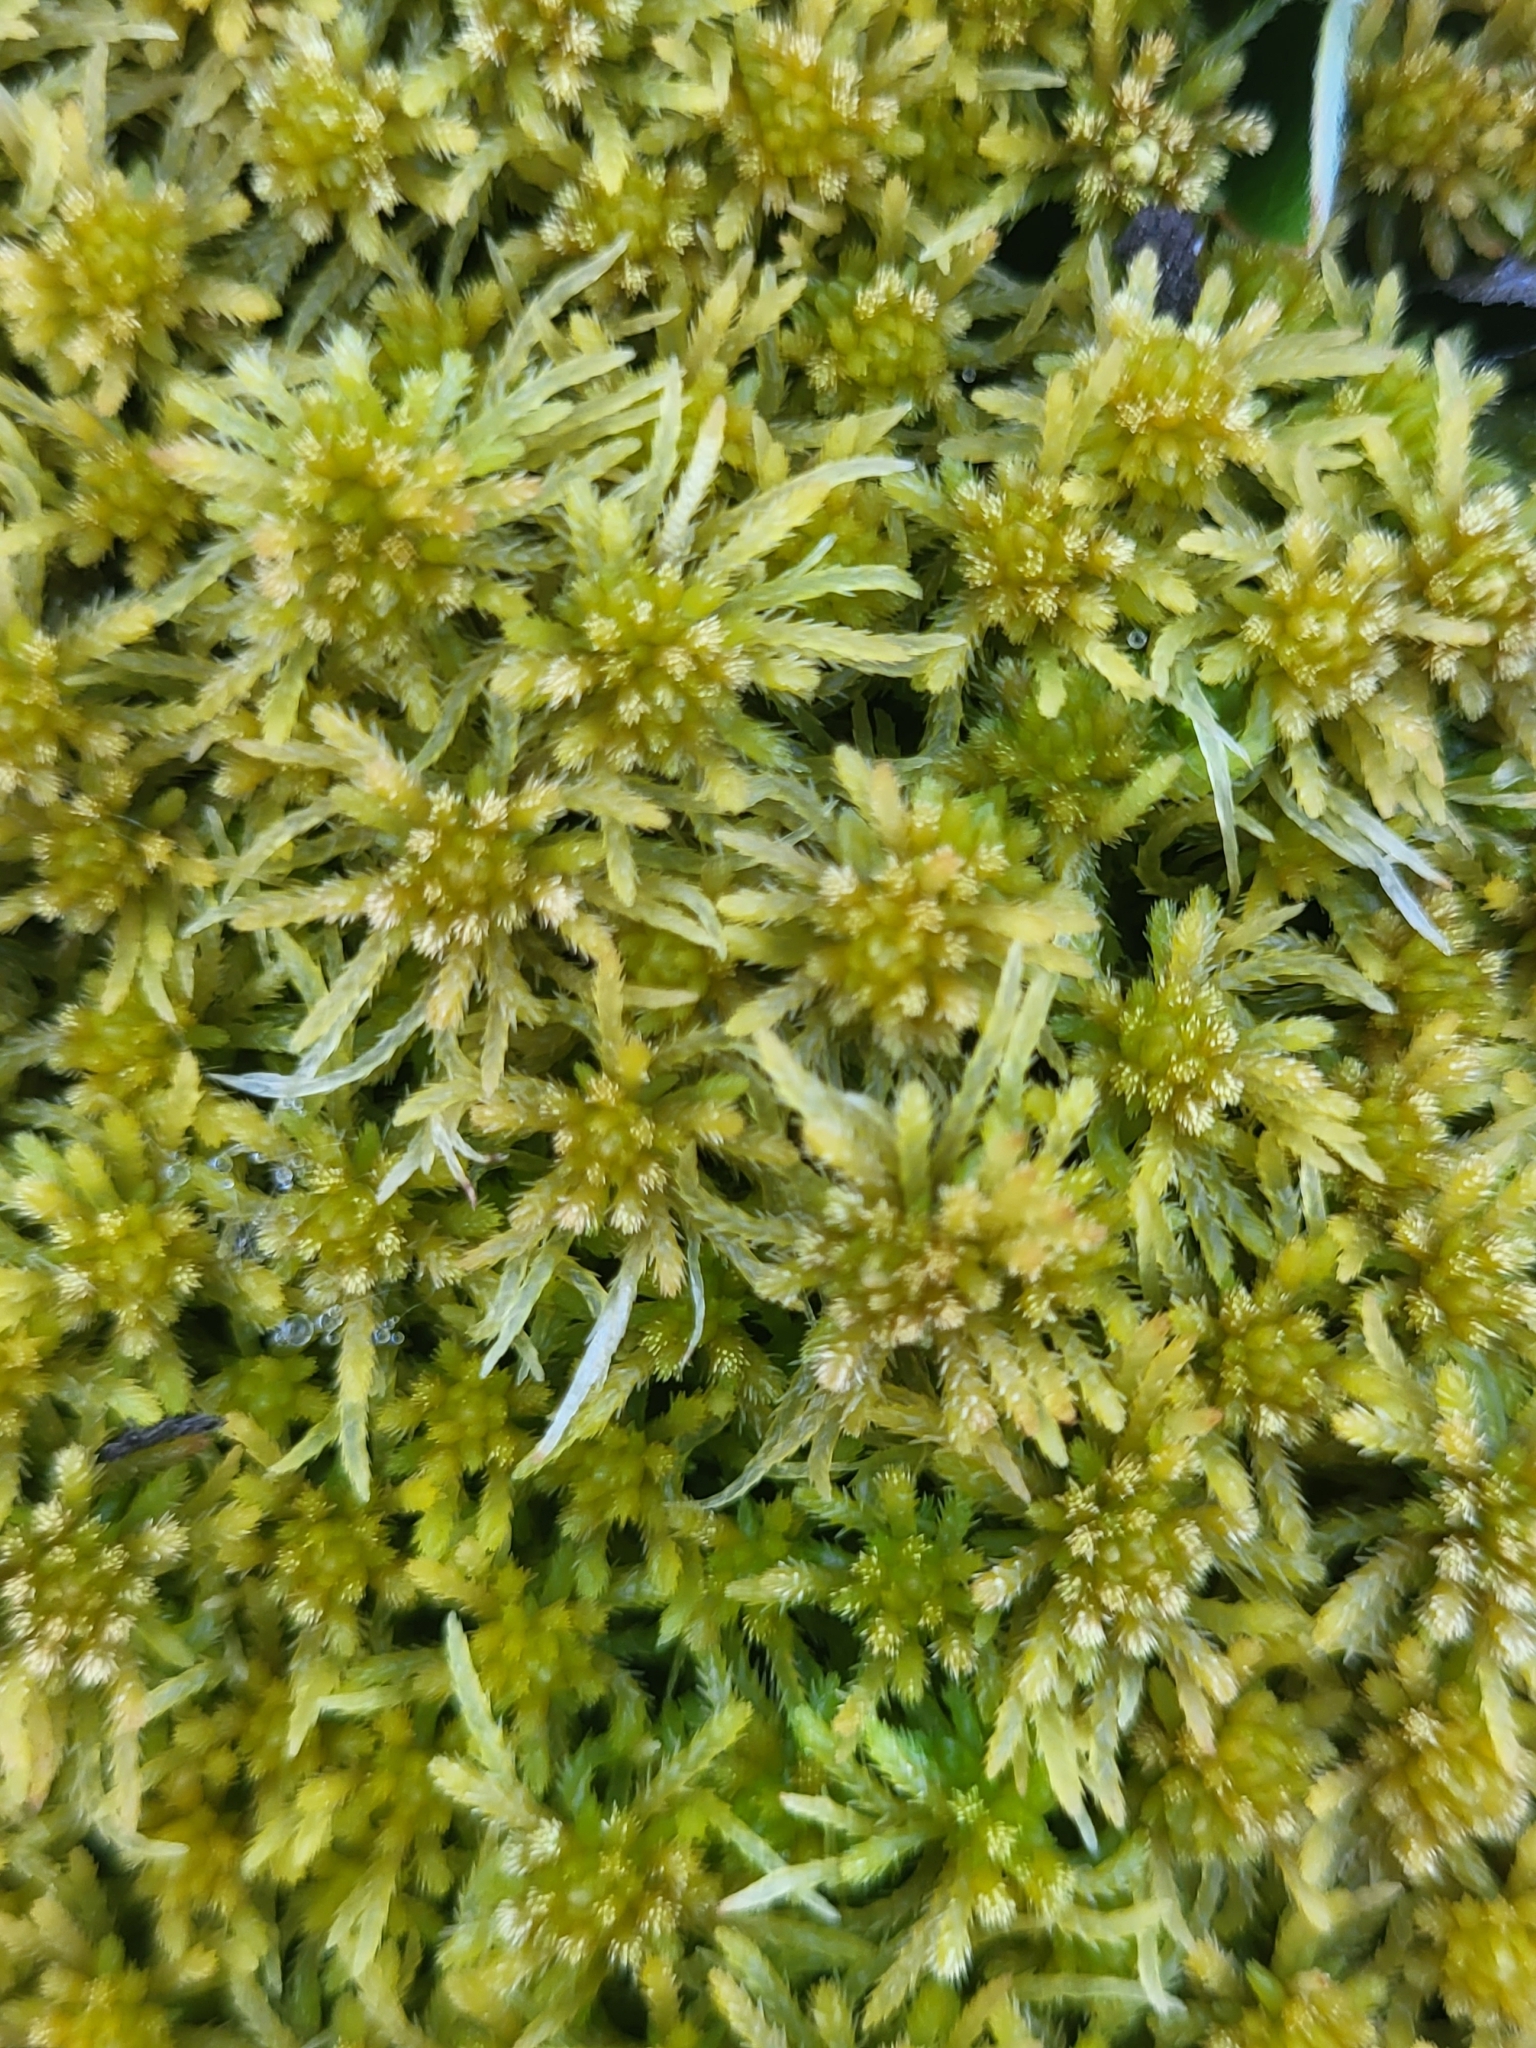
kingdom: Plantae
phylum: Bryophyta
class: Sphagnopsida
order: Sphagnales
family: Sphagnaceae
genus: Sphagnum
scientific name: Sphagnum teres
